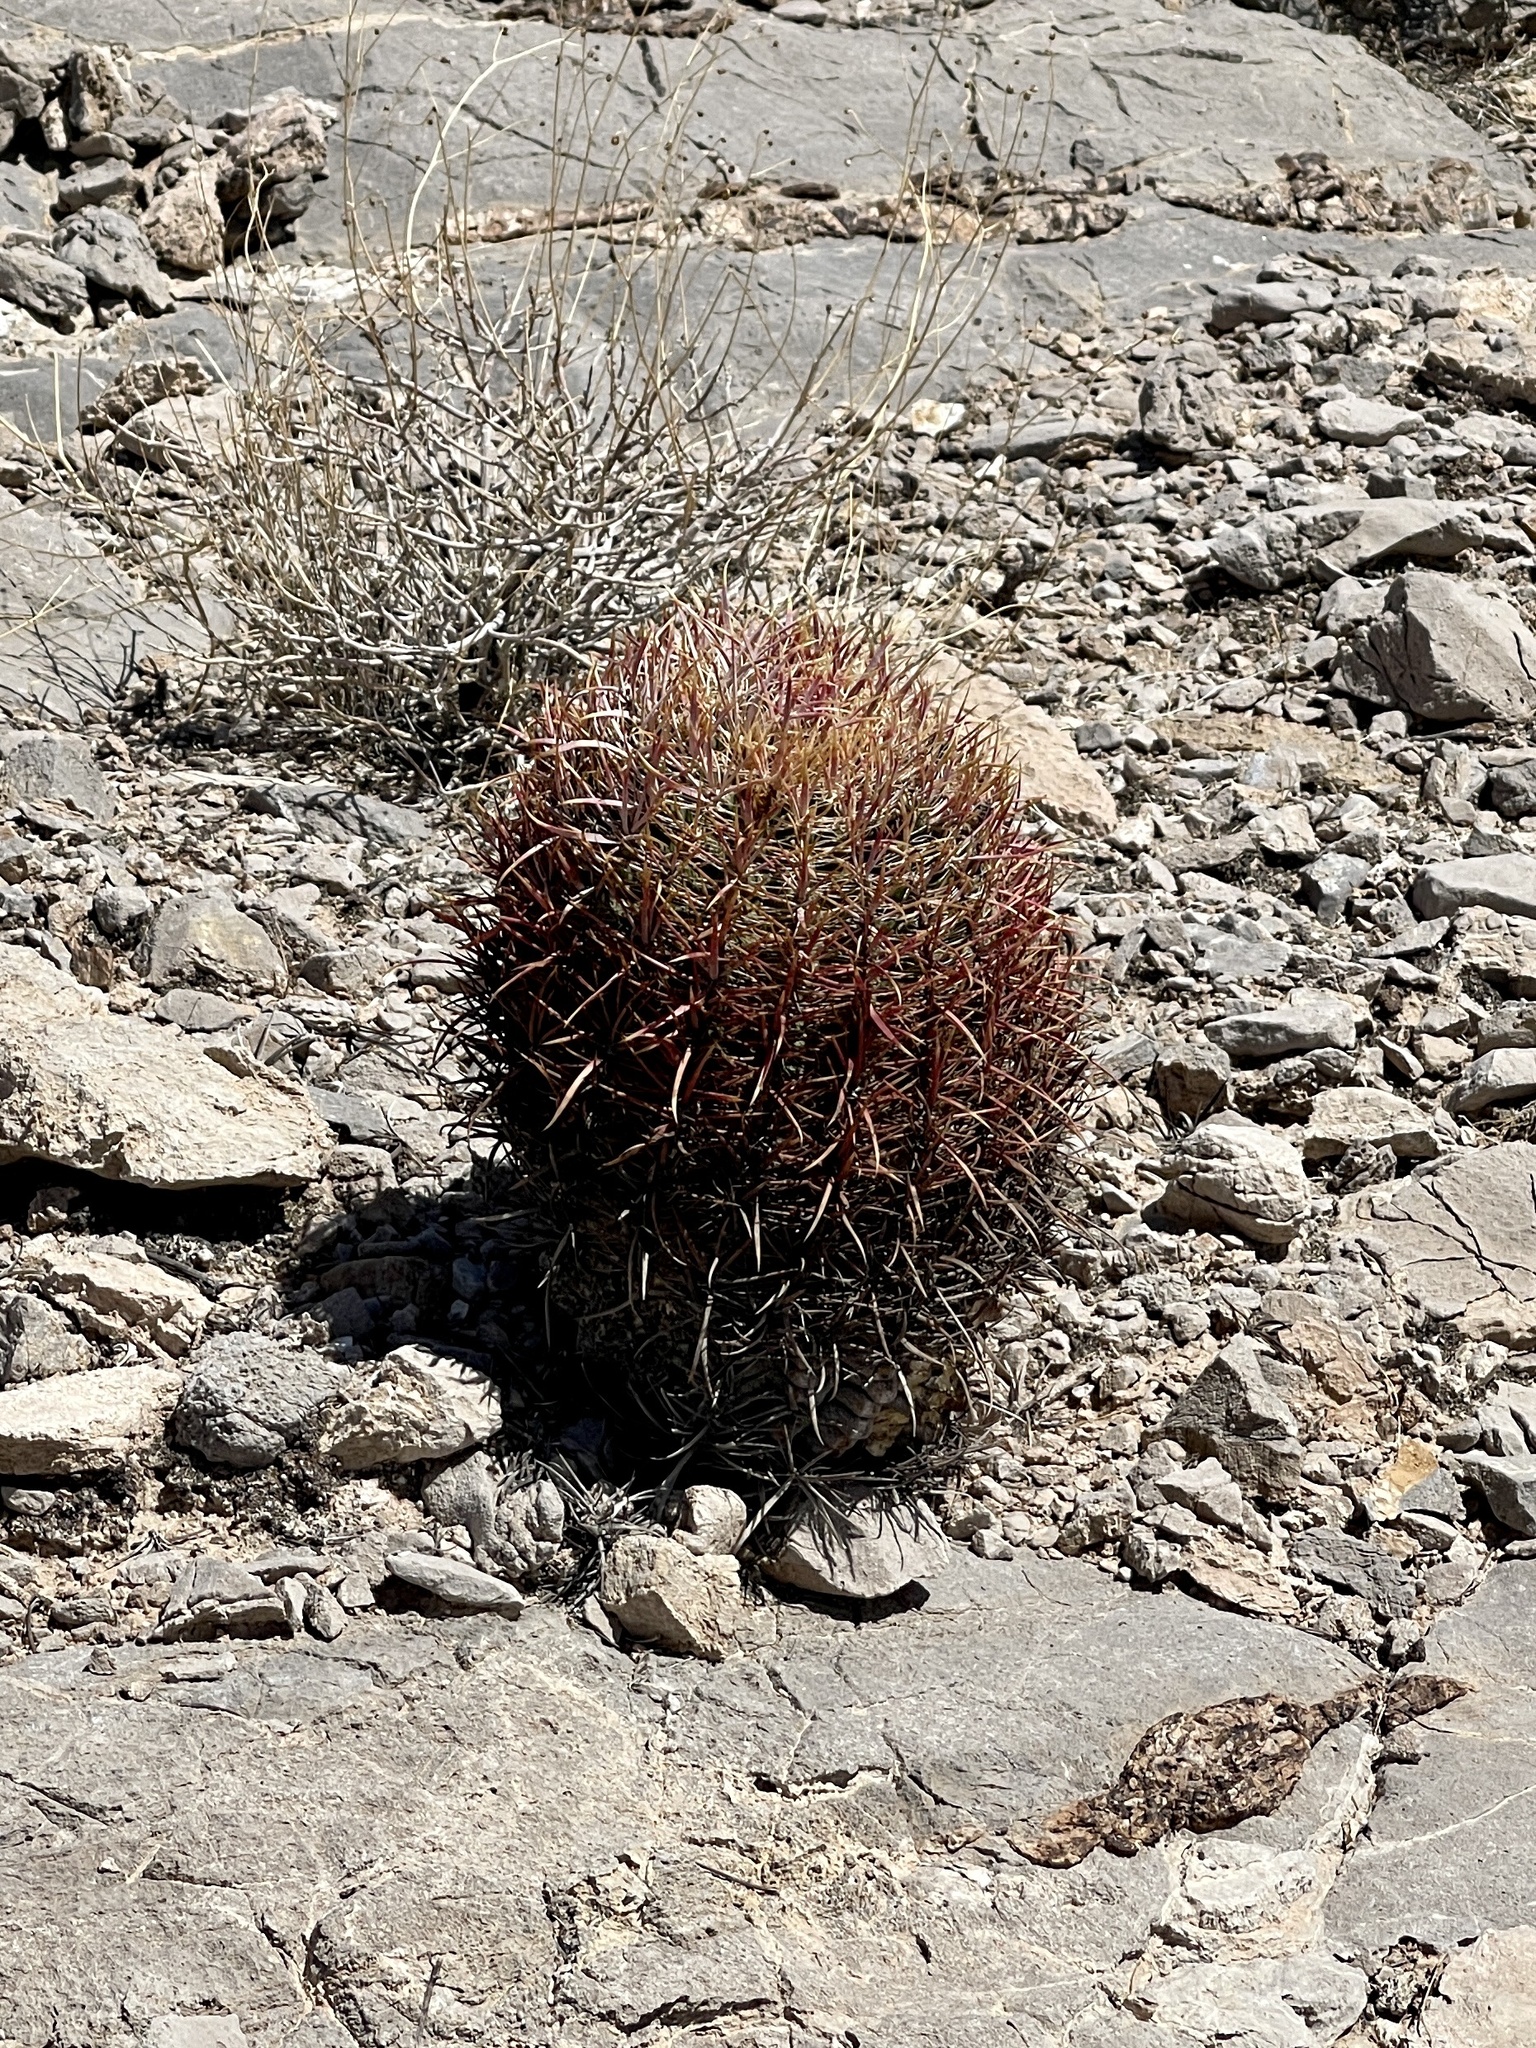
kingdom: Plantae
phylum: Tracheophyta
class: Magnoliopsida
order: Caryophyllales
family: Cactaceae
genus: Ferocactus
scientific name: Ferocactus cylindraceus
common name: California barrel cactus
